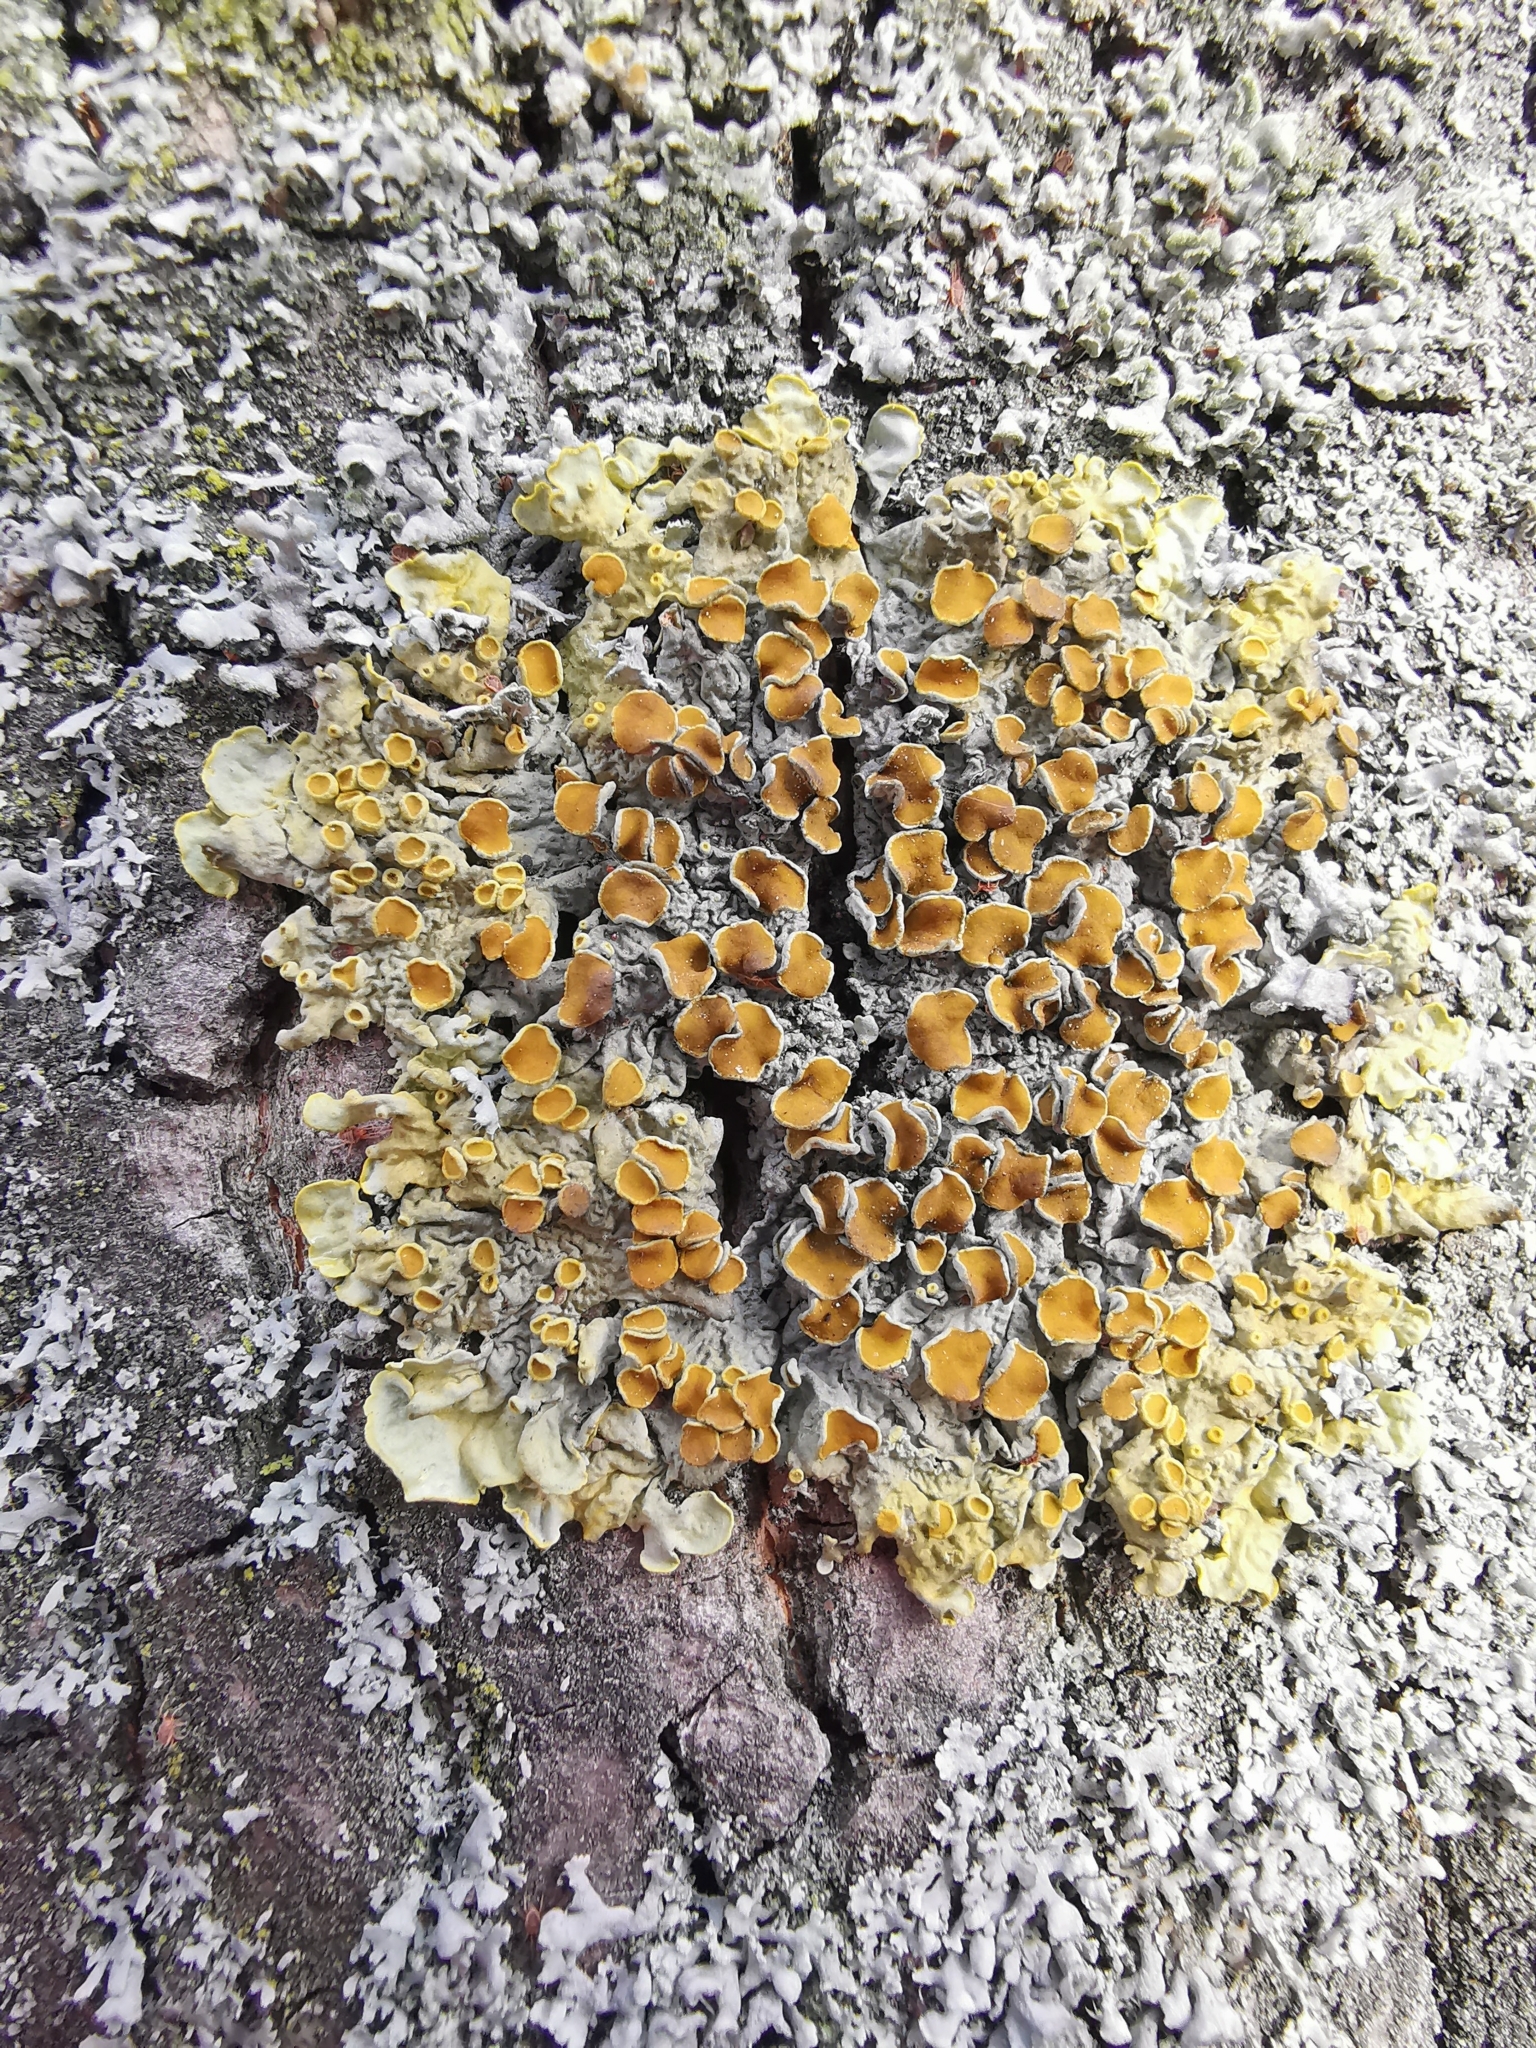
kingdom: Fungi
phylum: Ascomycota
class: Lecanoromycetes
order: Teloschistales
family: Teloschistaceae
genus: Xanthoria
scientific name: Xanthoria parietina
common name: Common orange lichen
